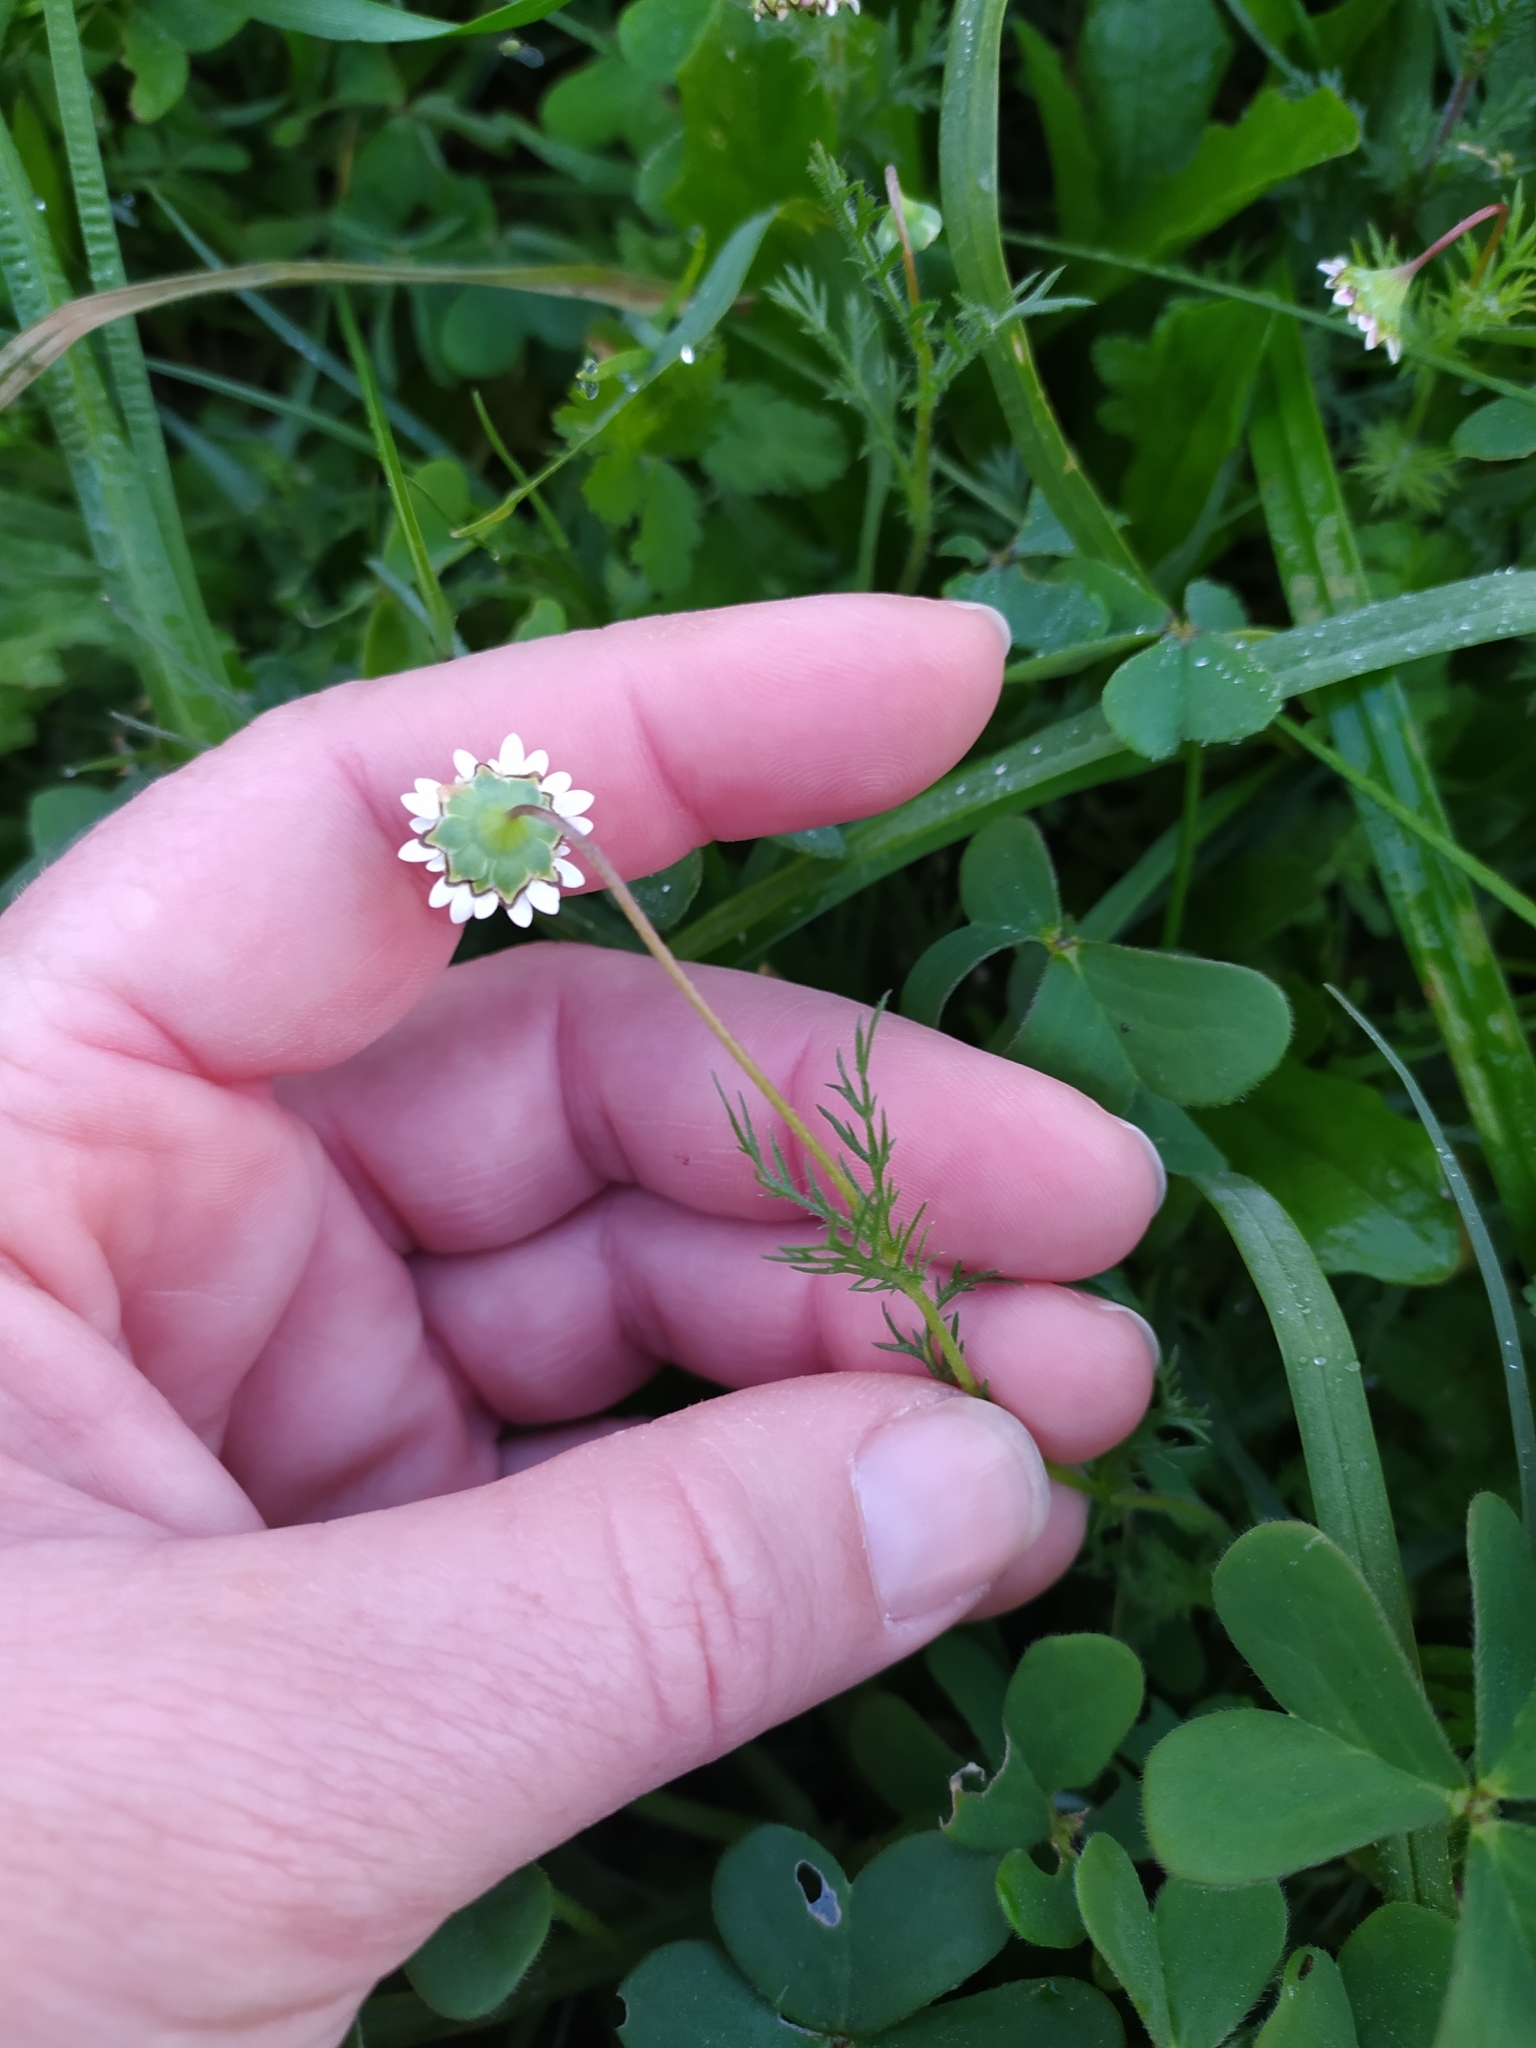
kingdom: Plantae
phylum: Tracheophyta
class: Magnoliopsida
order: Asterales
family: Asteraceae
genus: Cotula
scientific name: Cotula turbinata
